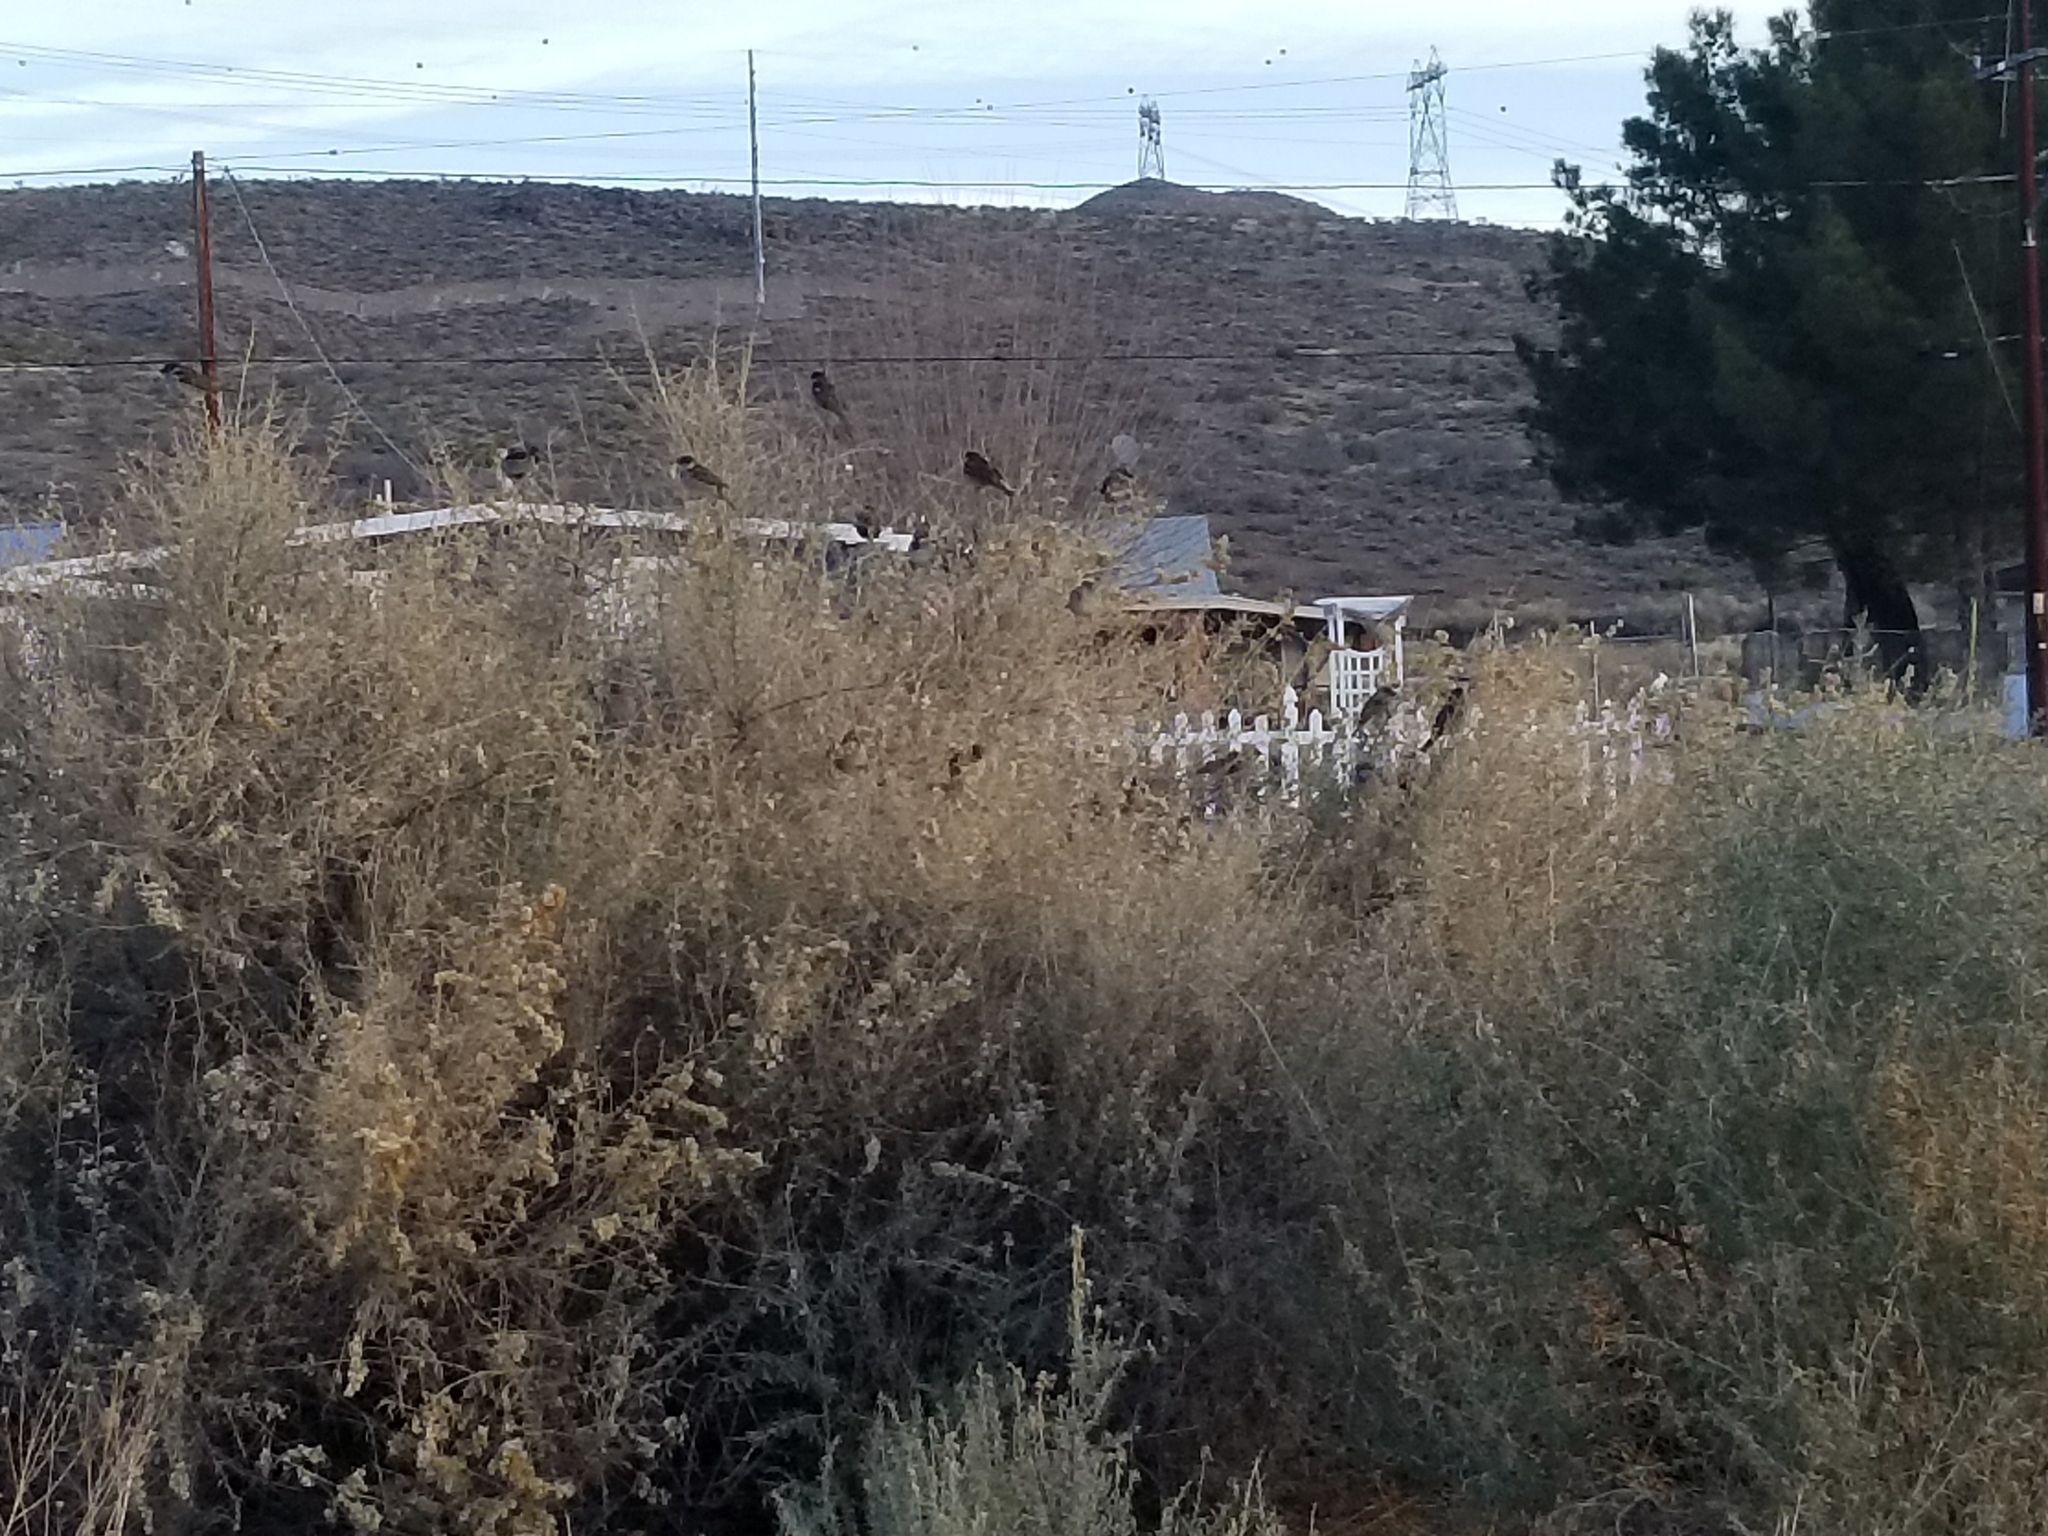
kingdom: Animalia
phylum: Chordata
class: Aves
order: Passeriformes
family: Passeridae
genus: Passer
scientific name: Passer domesticus
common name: House sparrow
